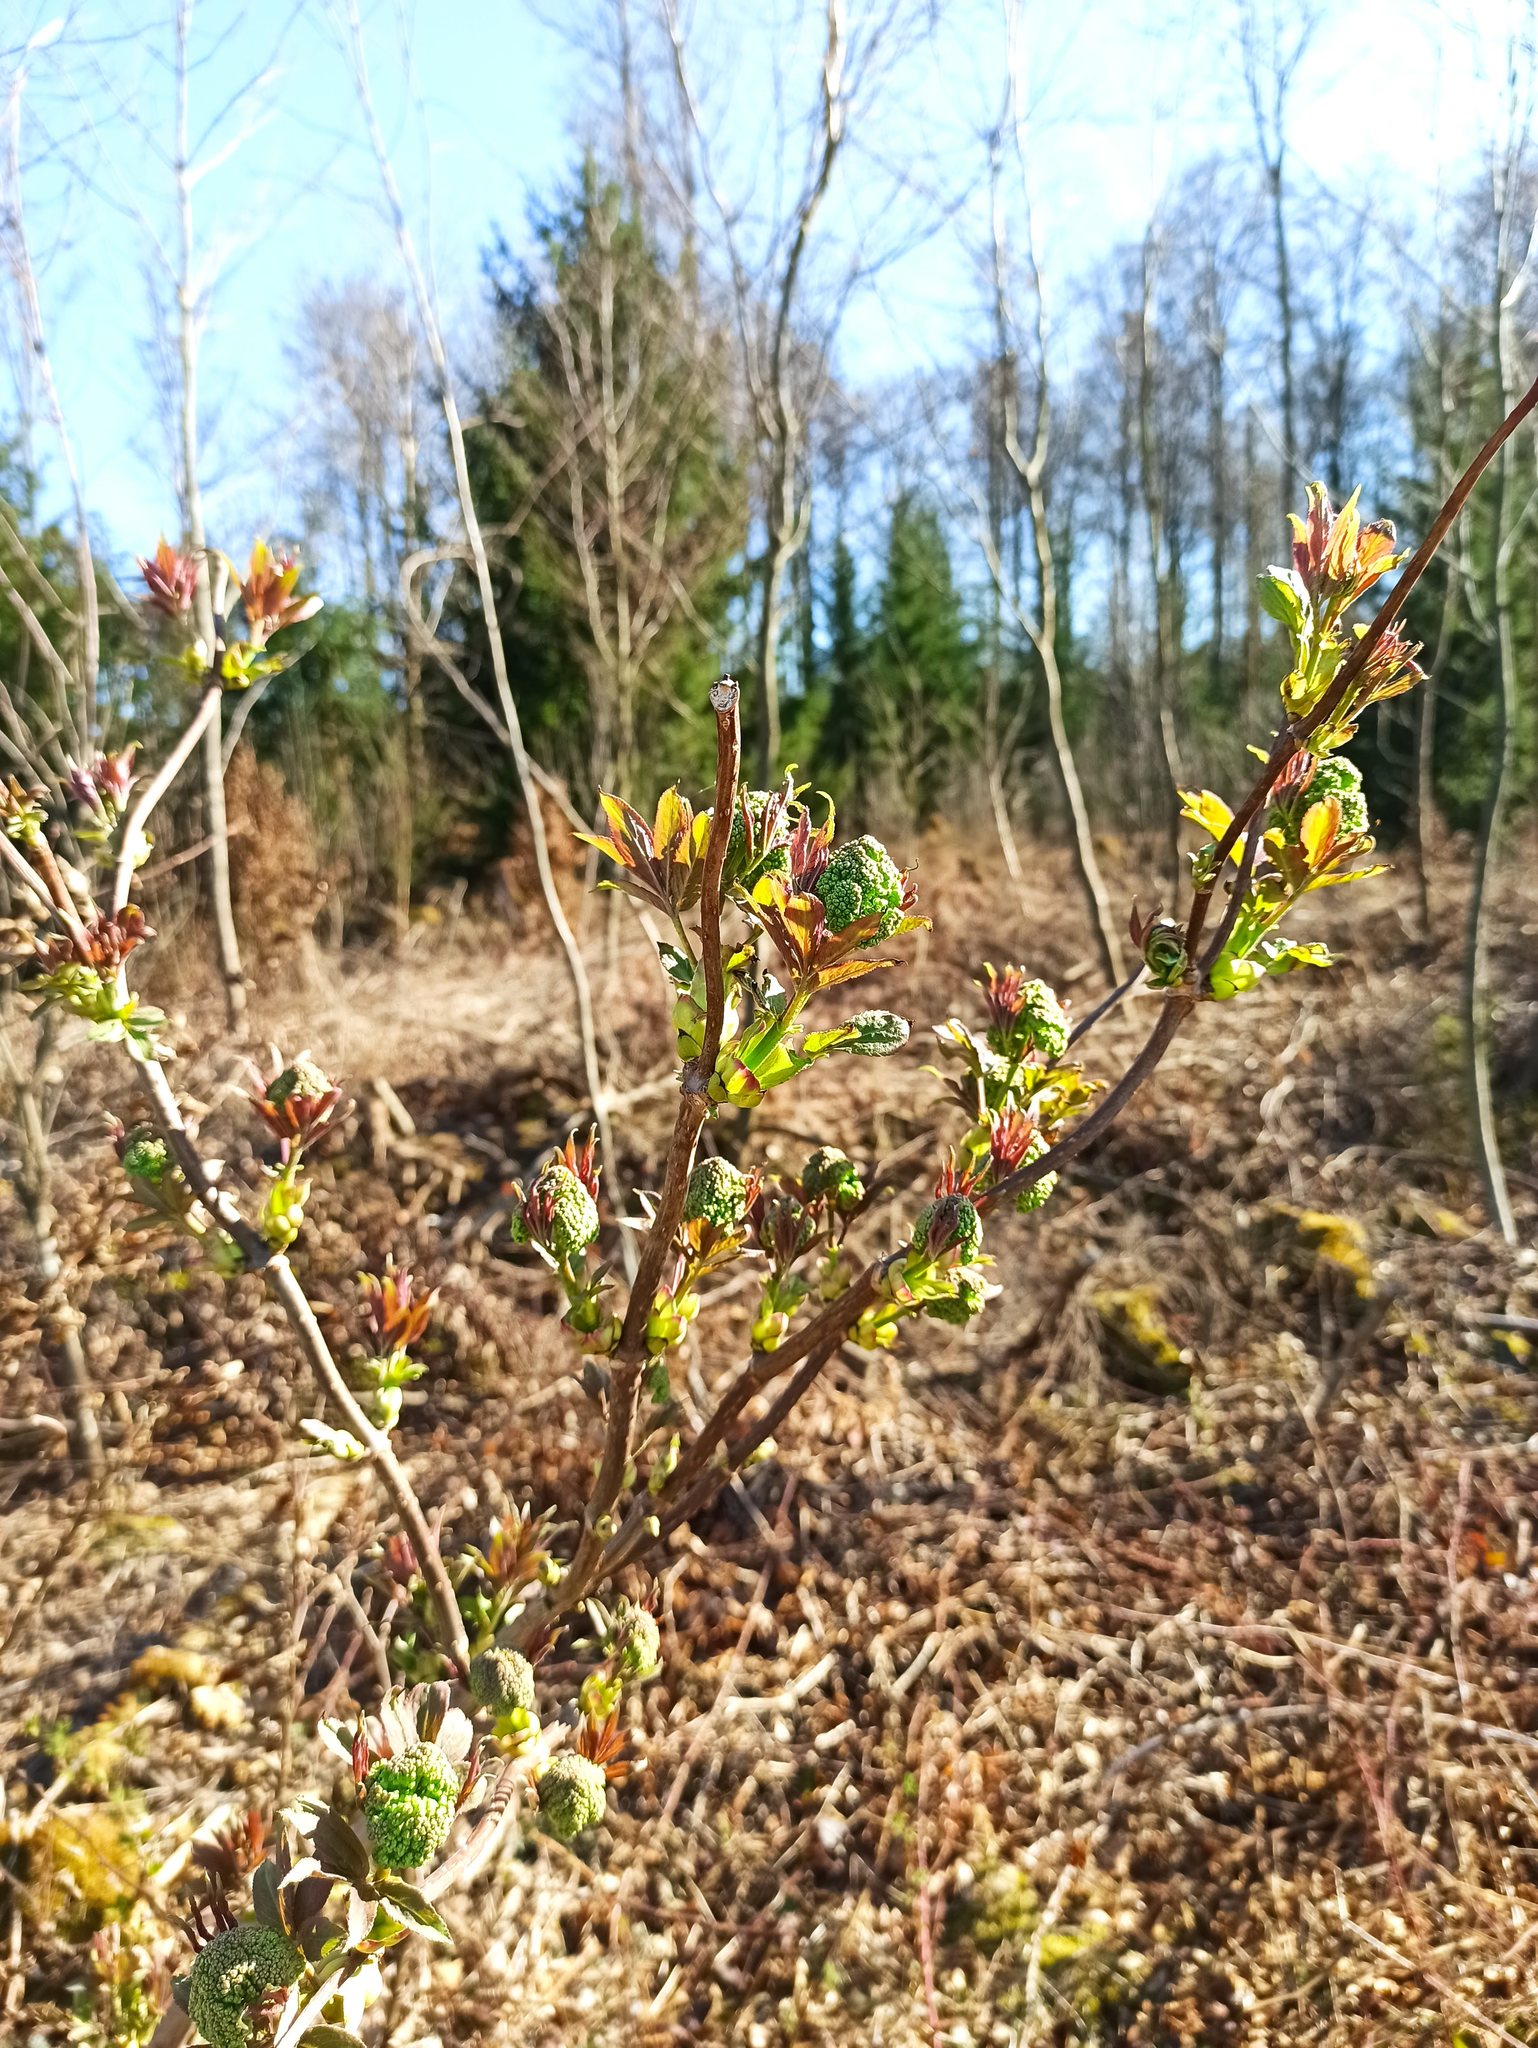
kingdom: Plantae
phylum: Tracheophyta
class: Magnoliopsida
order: Dipsacales
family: Viburnaceae
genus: Sambucus
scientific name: Sambucus racemosa
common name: Red-berried elder
